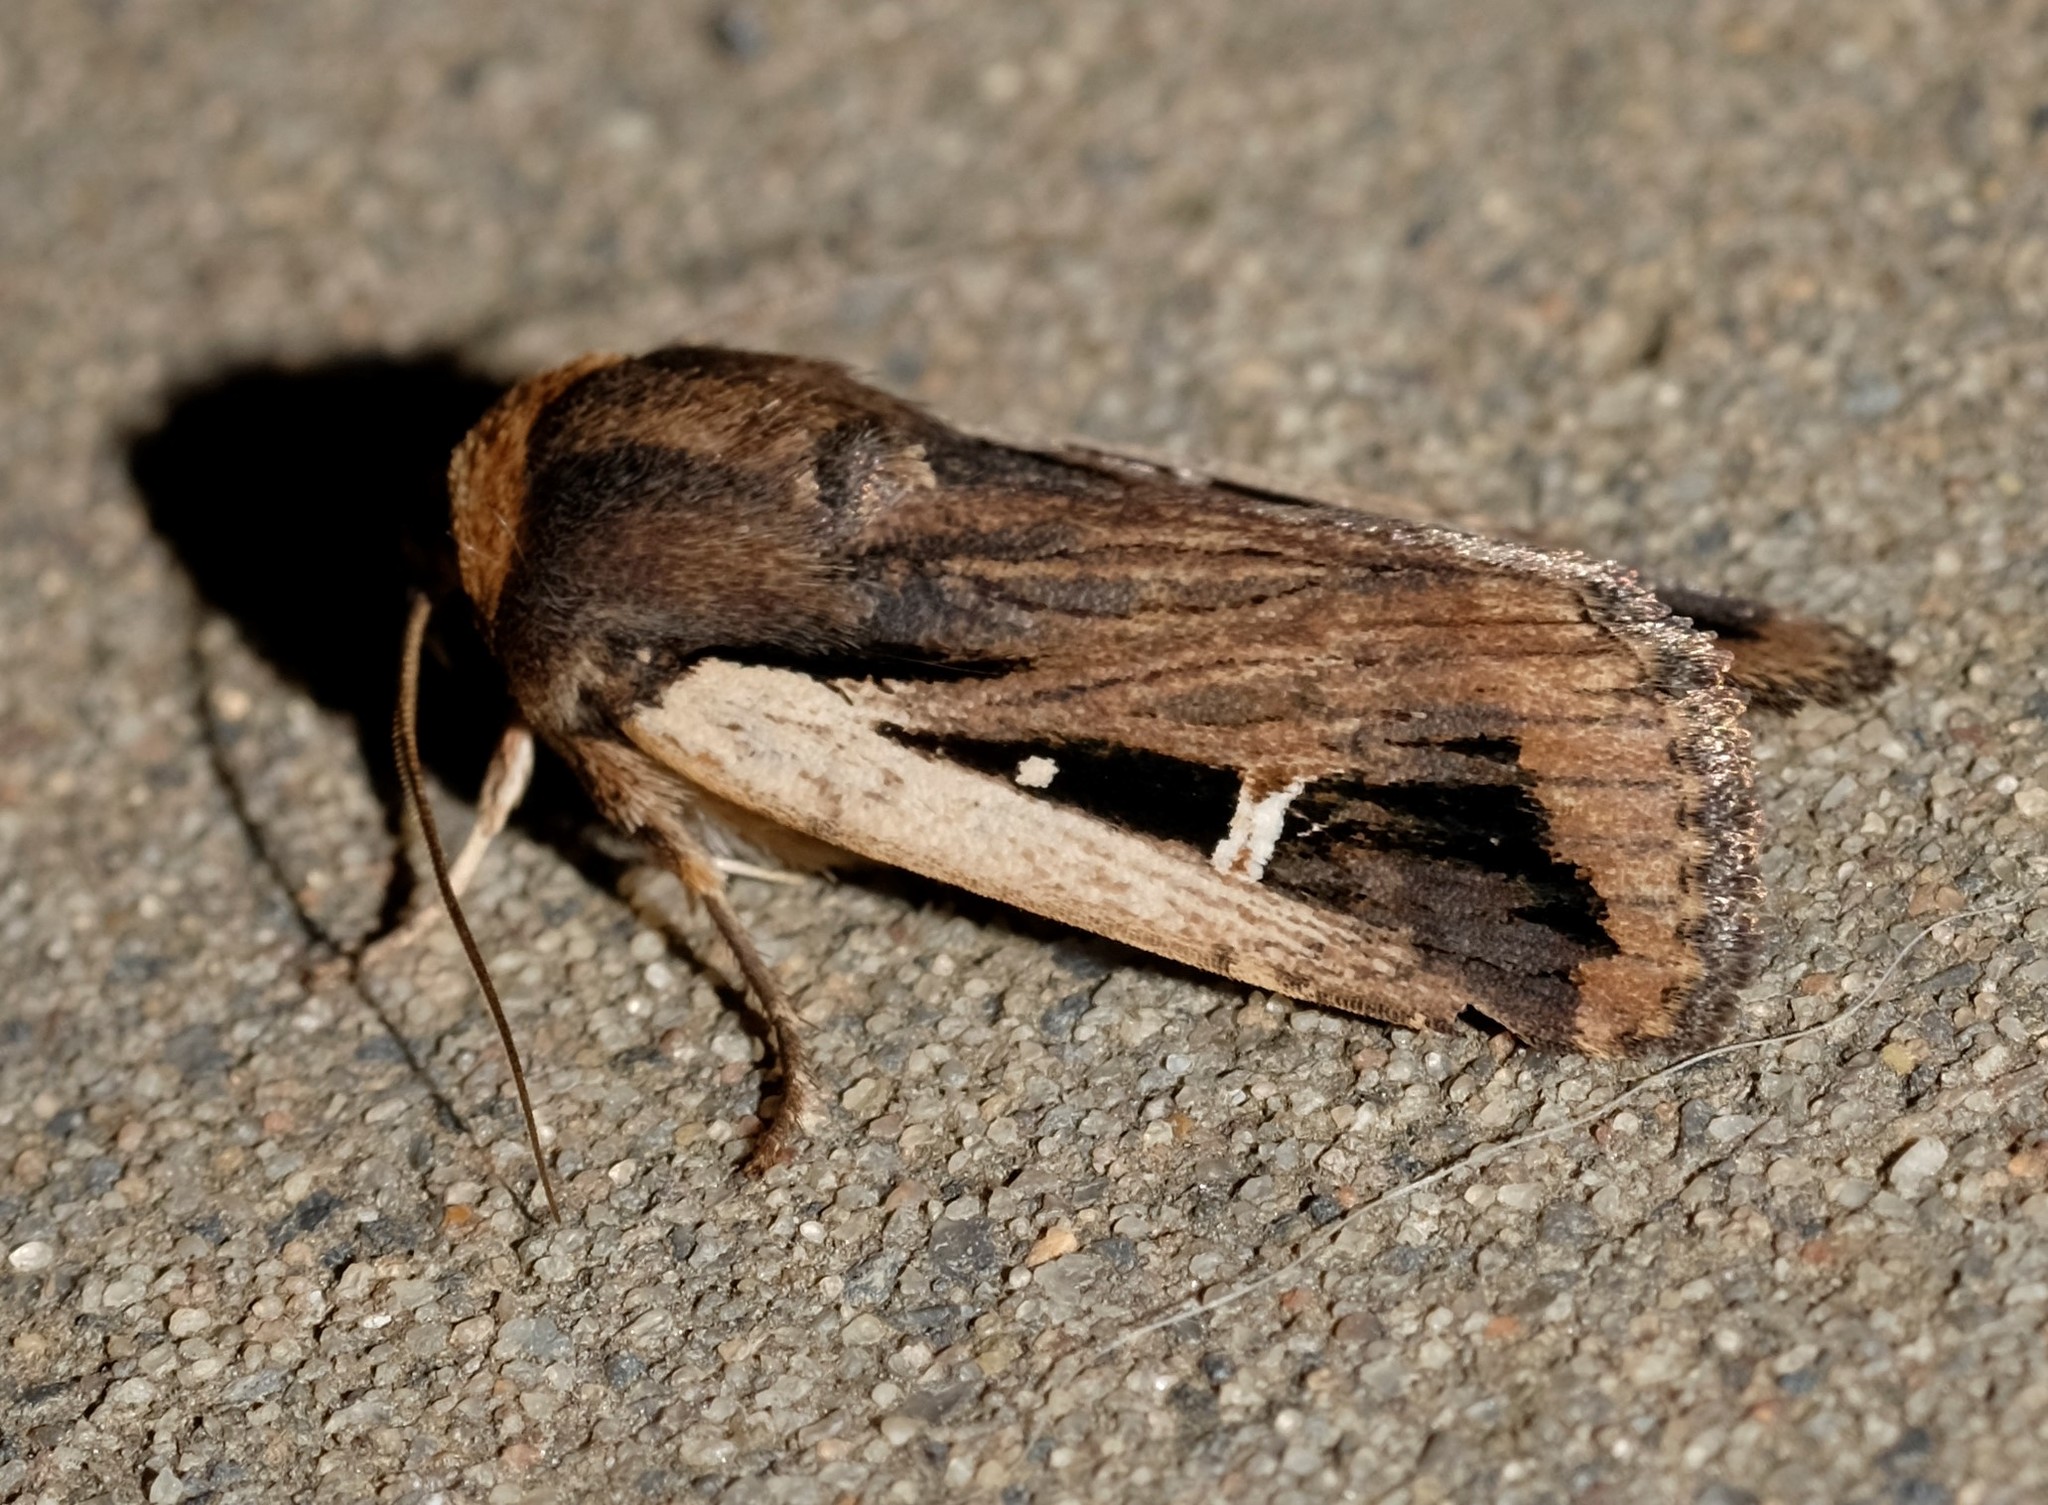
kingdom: Animalia
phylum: Arthropoda
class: Insecta
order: Lepidoptera
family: Noctuidae
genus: Proteuxoa
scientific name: Proteuxoa tortisigna
